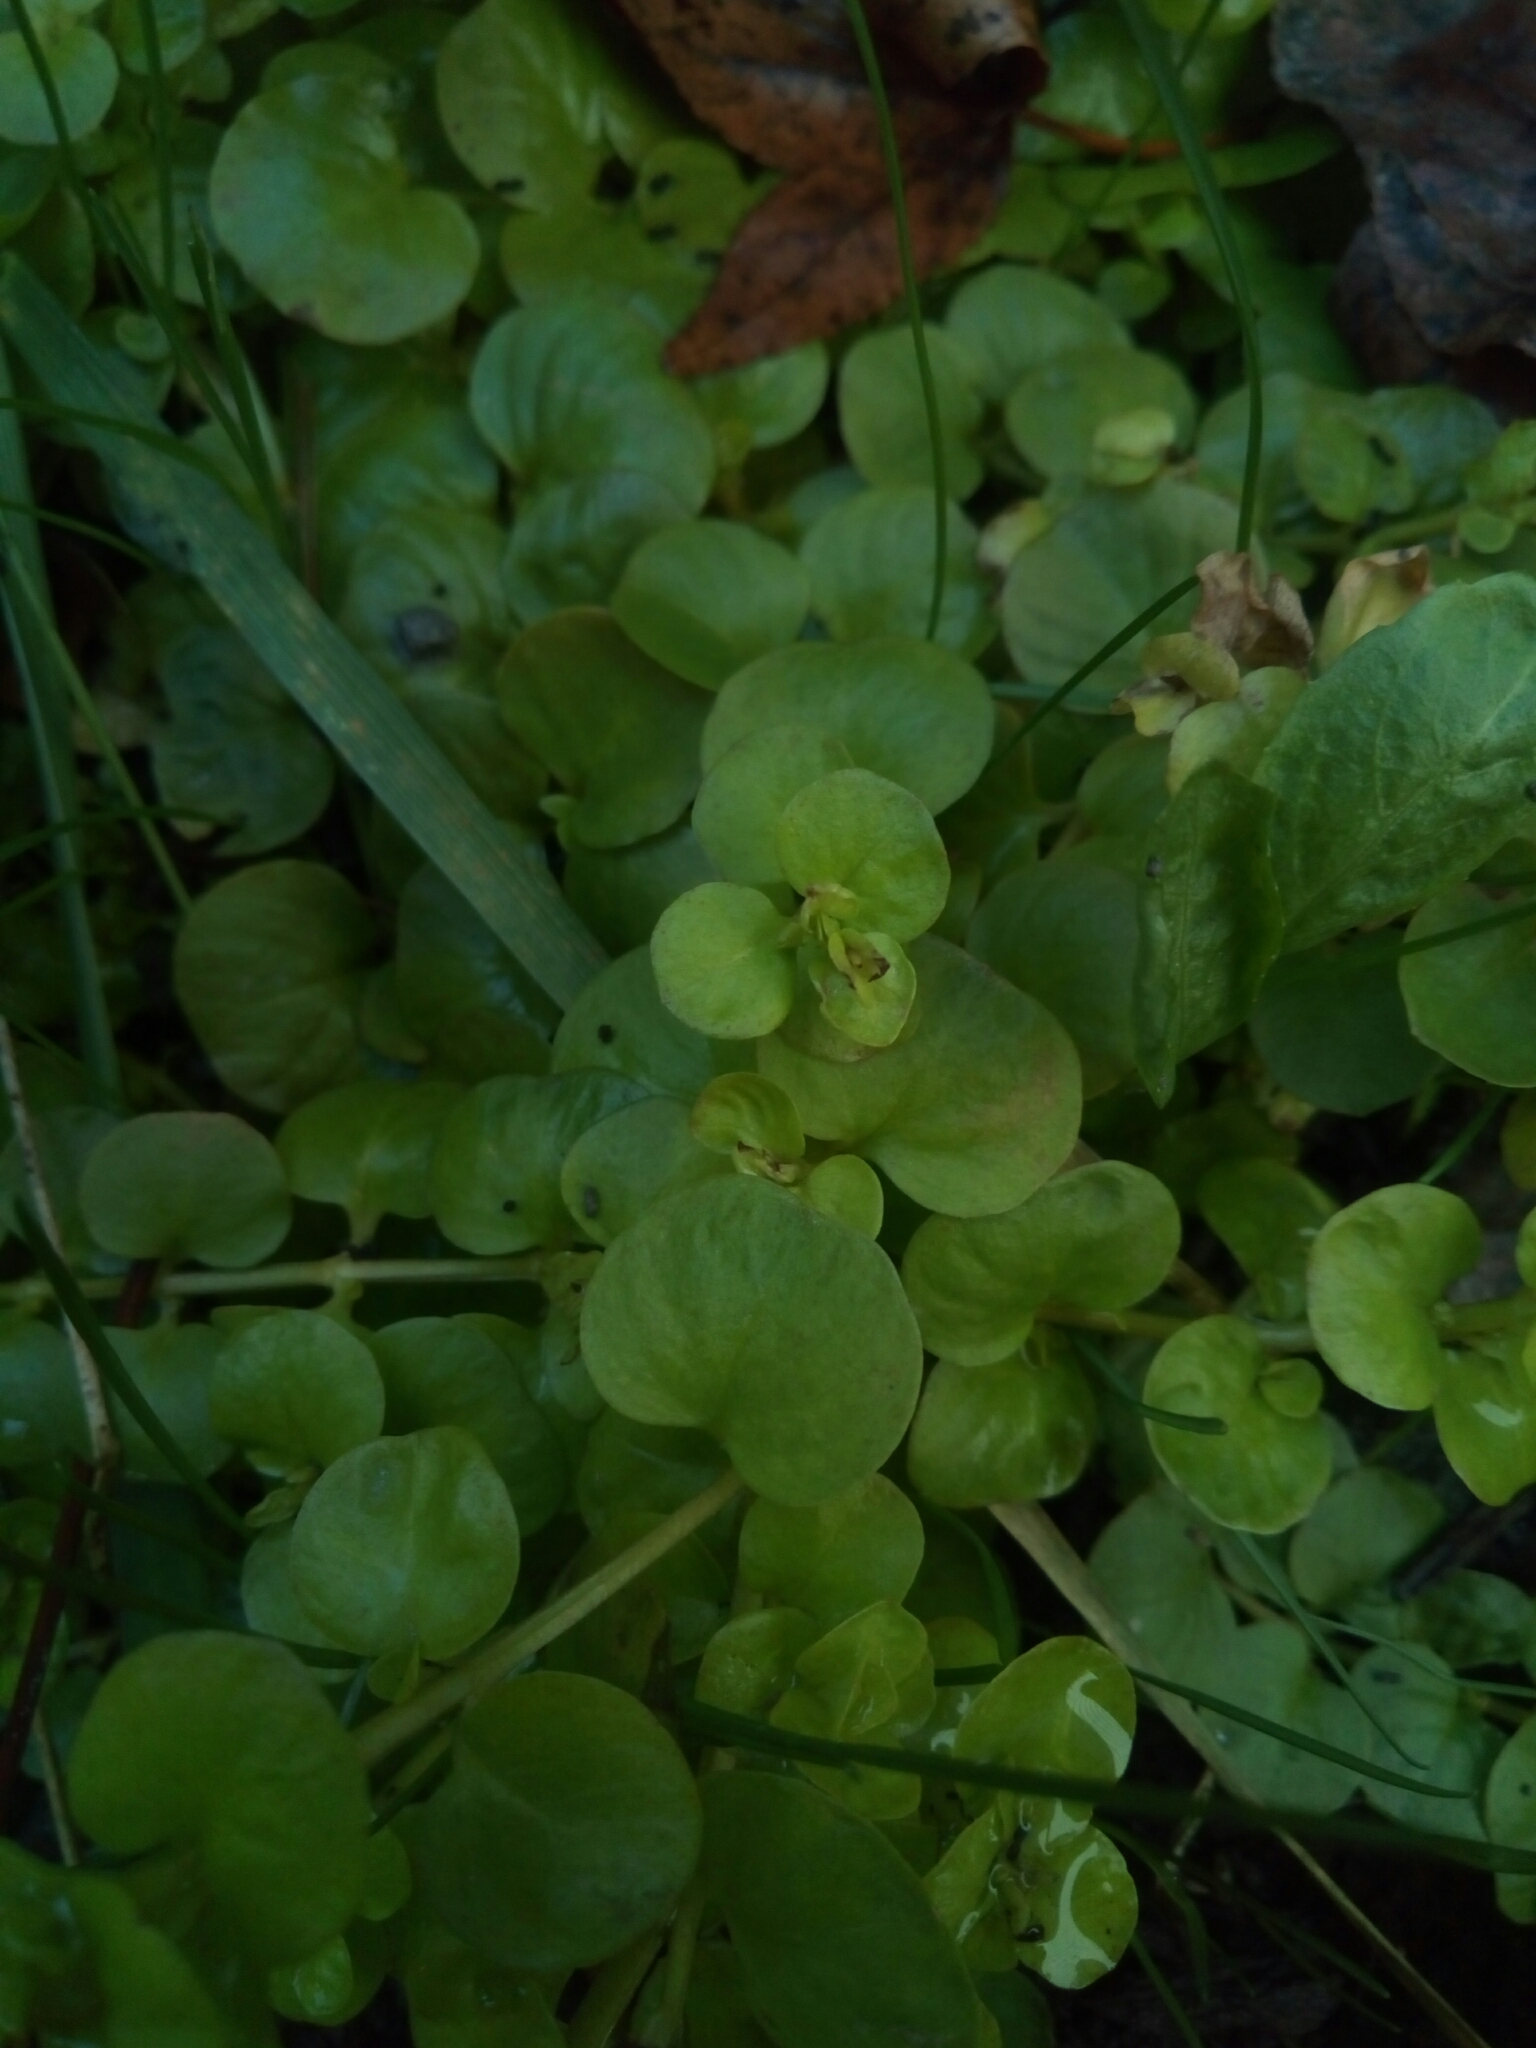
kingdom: Plantae
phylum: Tracheophyta
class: Magnoliopsida
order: Ericales
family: Primulaceae
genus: Lysimachia
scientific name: Lysimachia nummularia
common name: Moneywort
